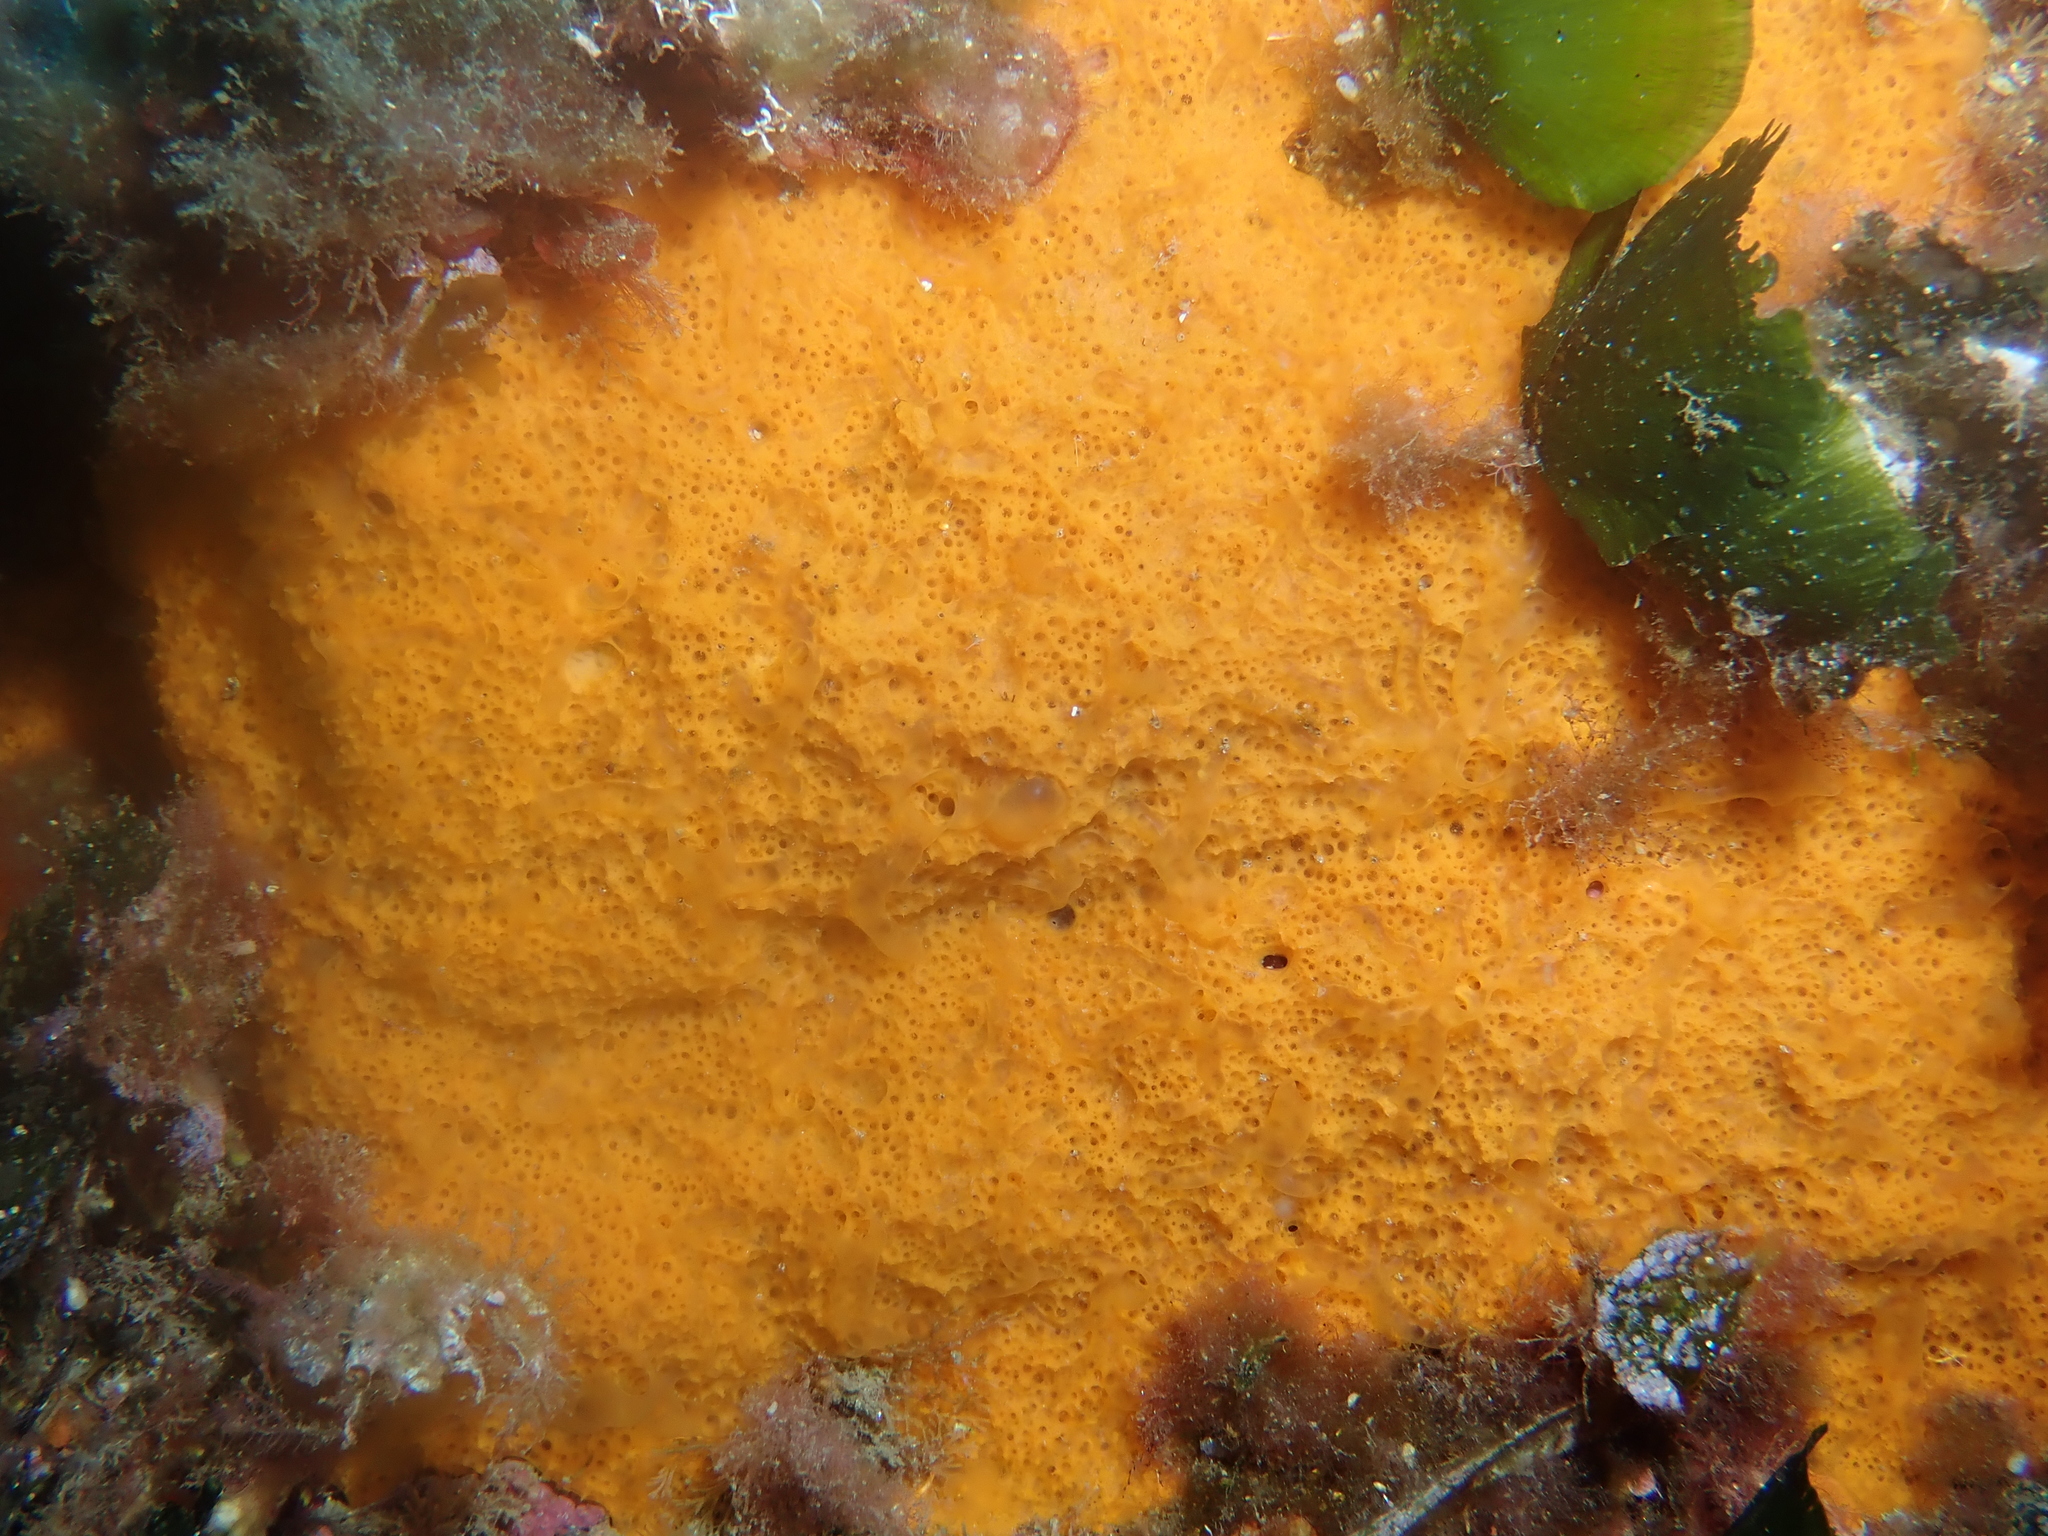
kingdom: Animalia
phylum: Porifera
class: Demospongiae
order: Scopalinida
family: Scopalinidae
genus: Scopalina
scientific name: Scopalina lophyropoda
